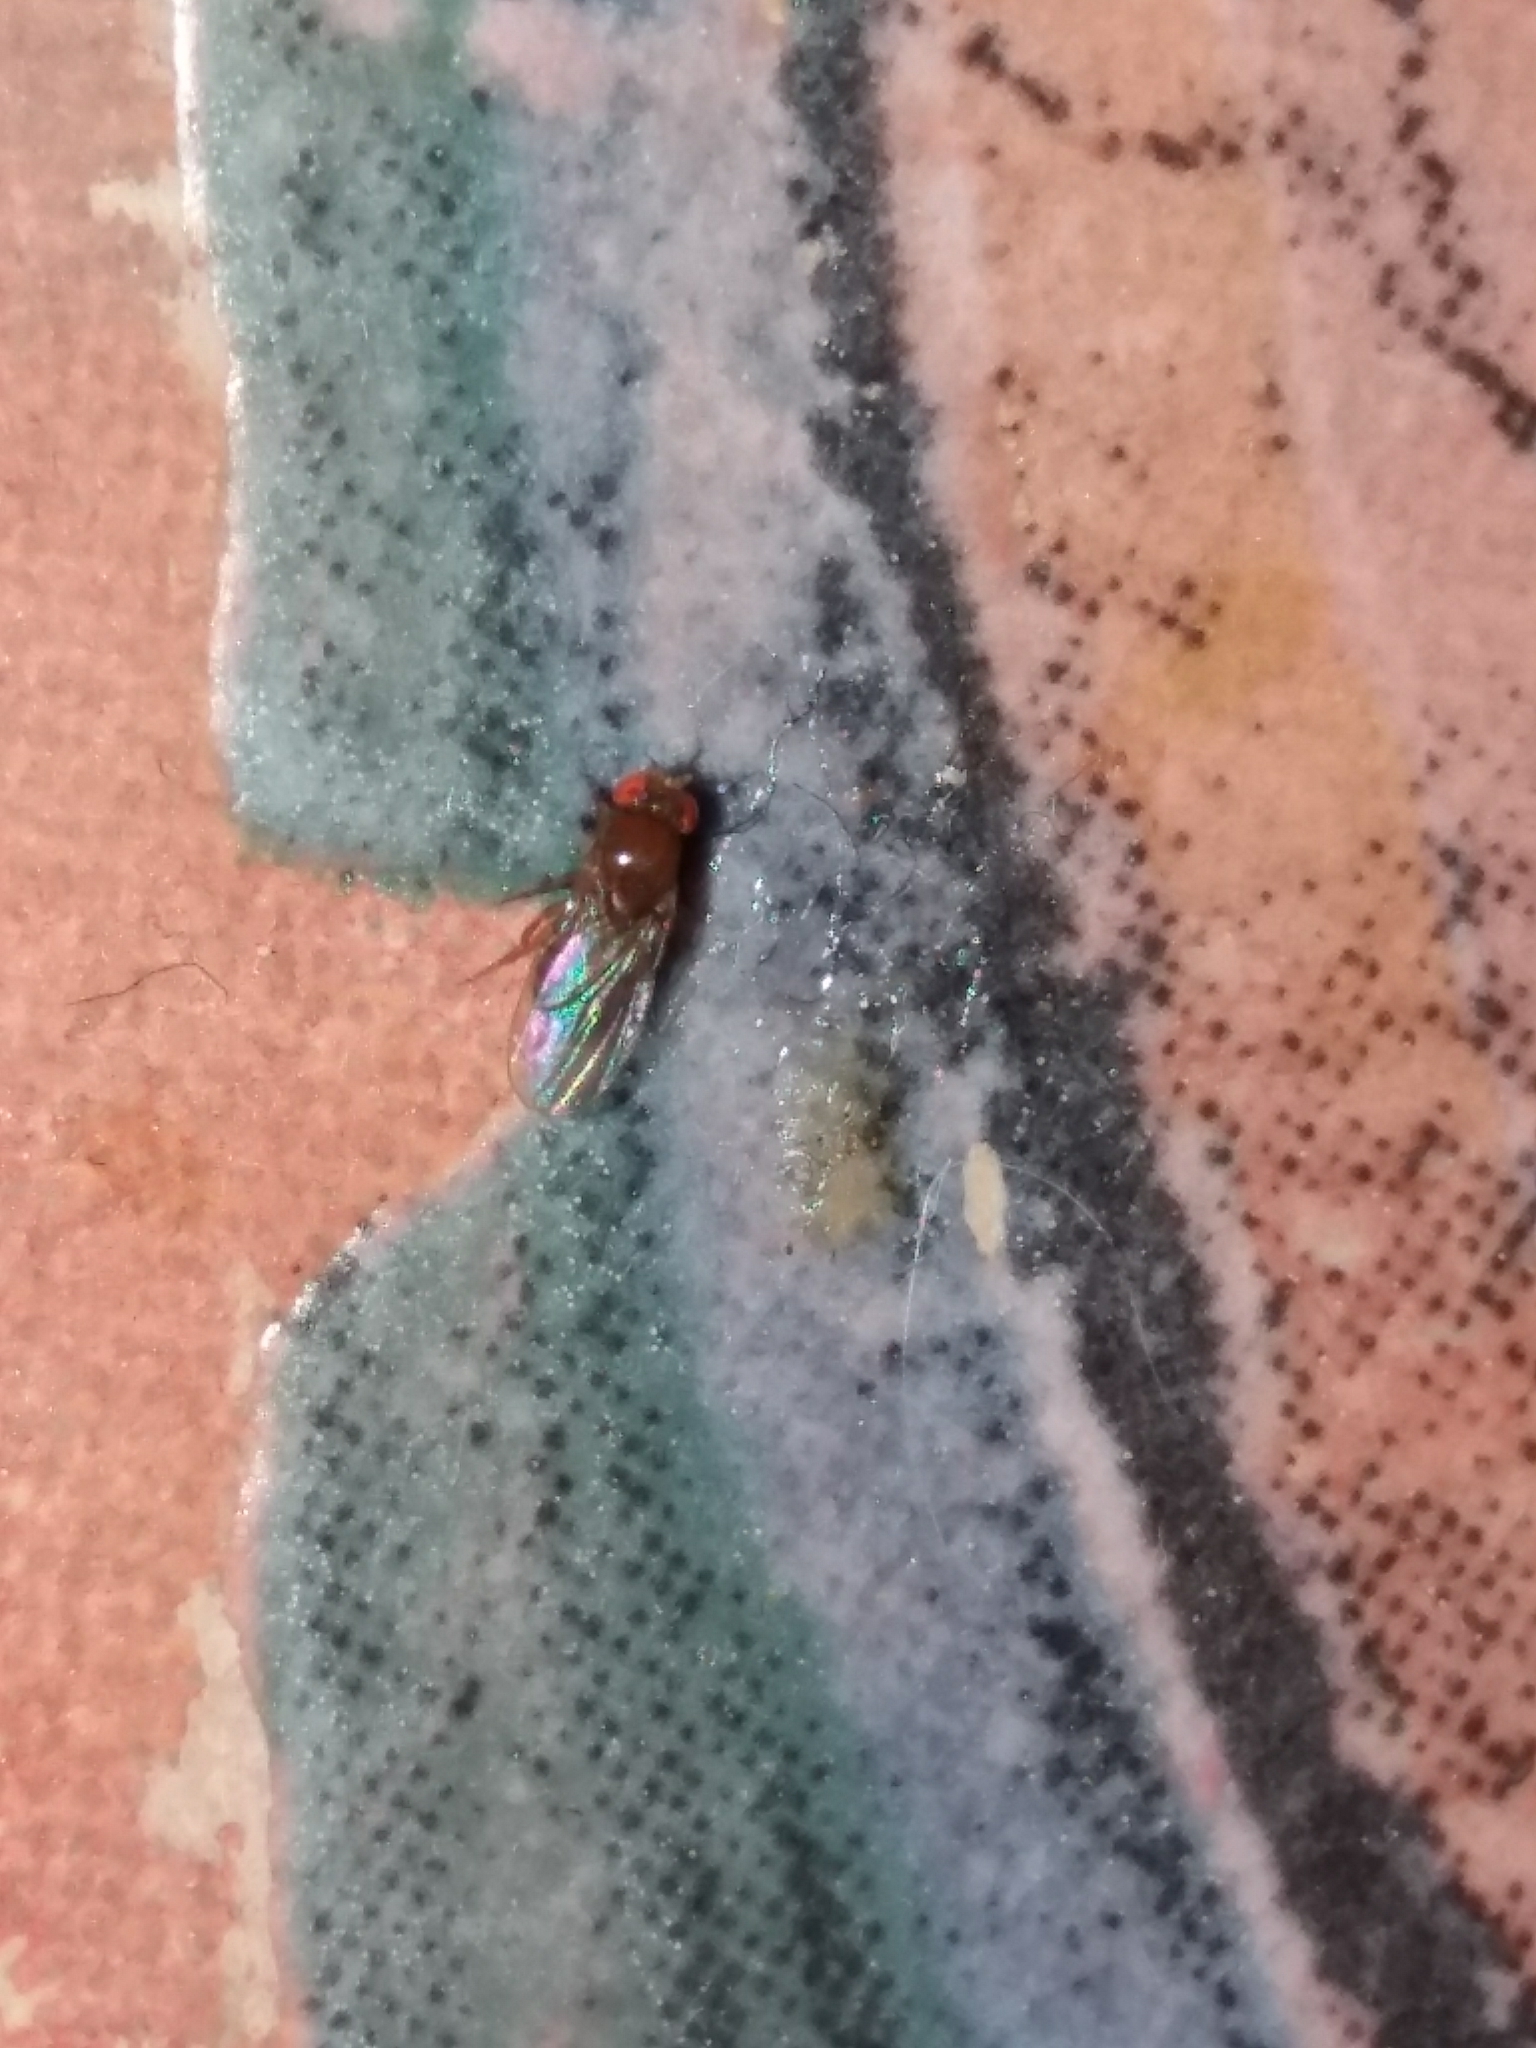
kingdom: Animalia
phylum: Arthropoda
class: Insecta
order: Diptera
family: Drosophilidae
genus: Drosophila
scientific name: Drosophila
